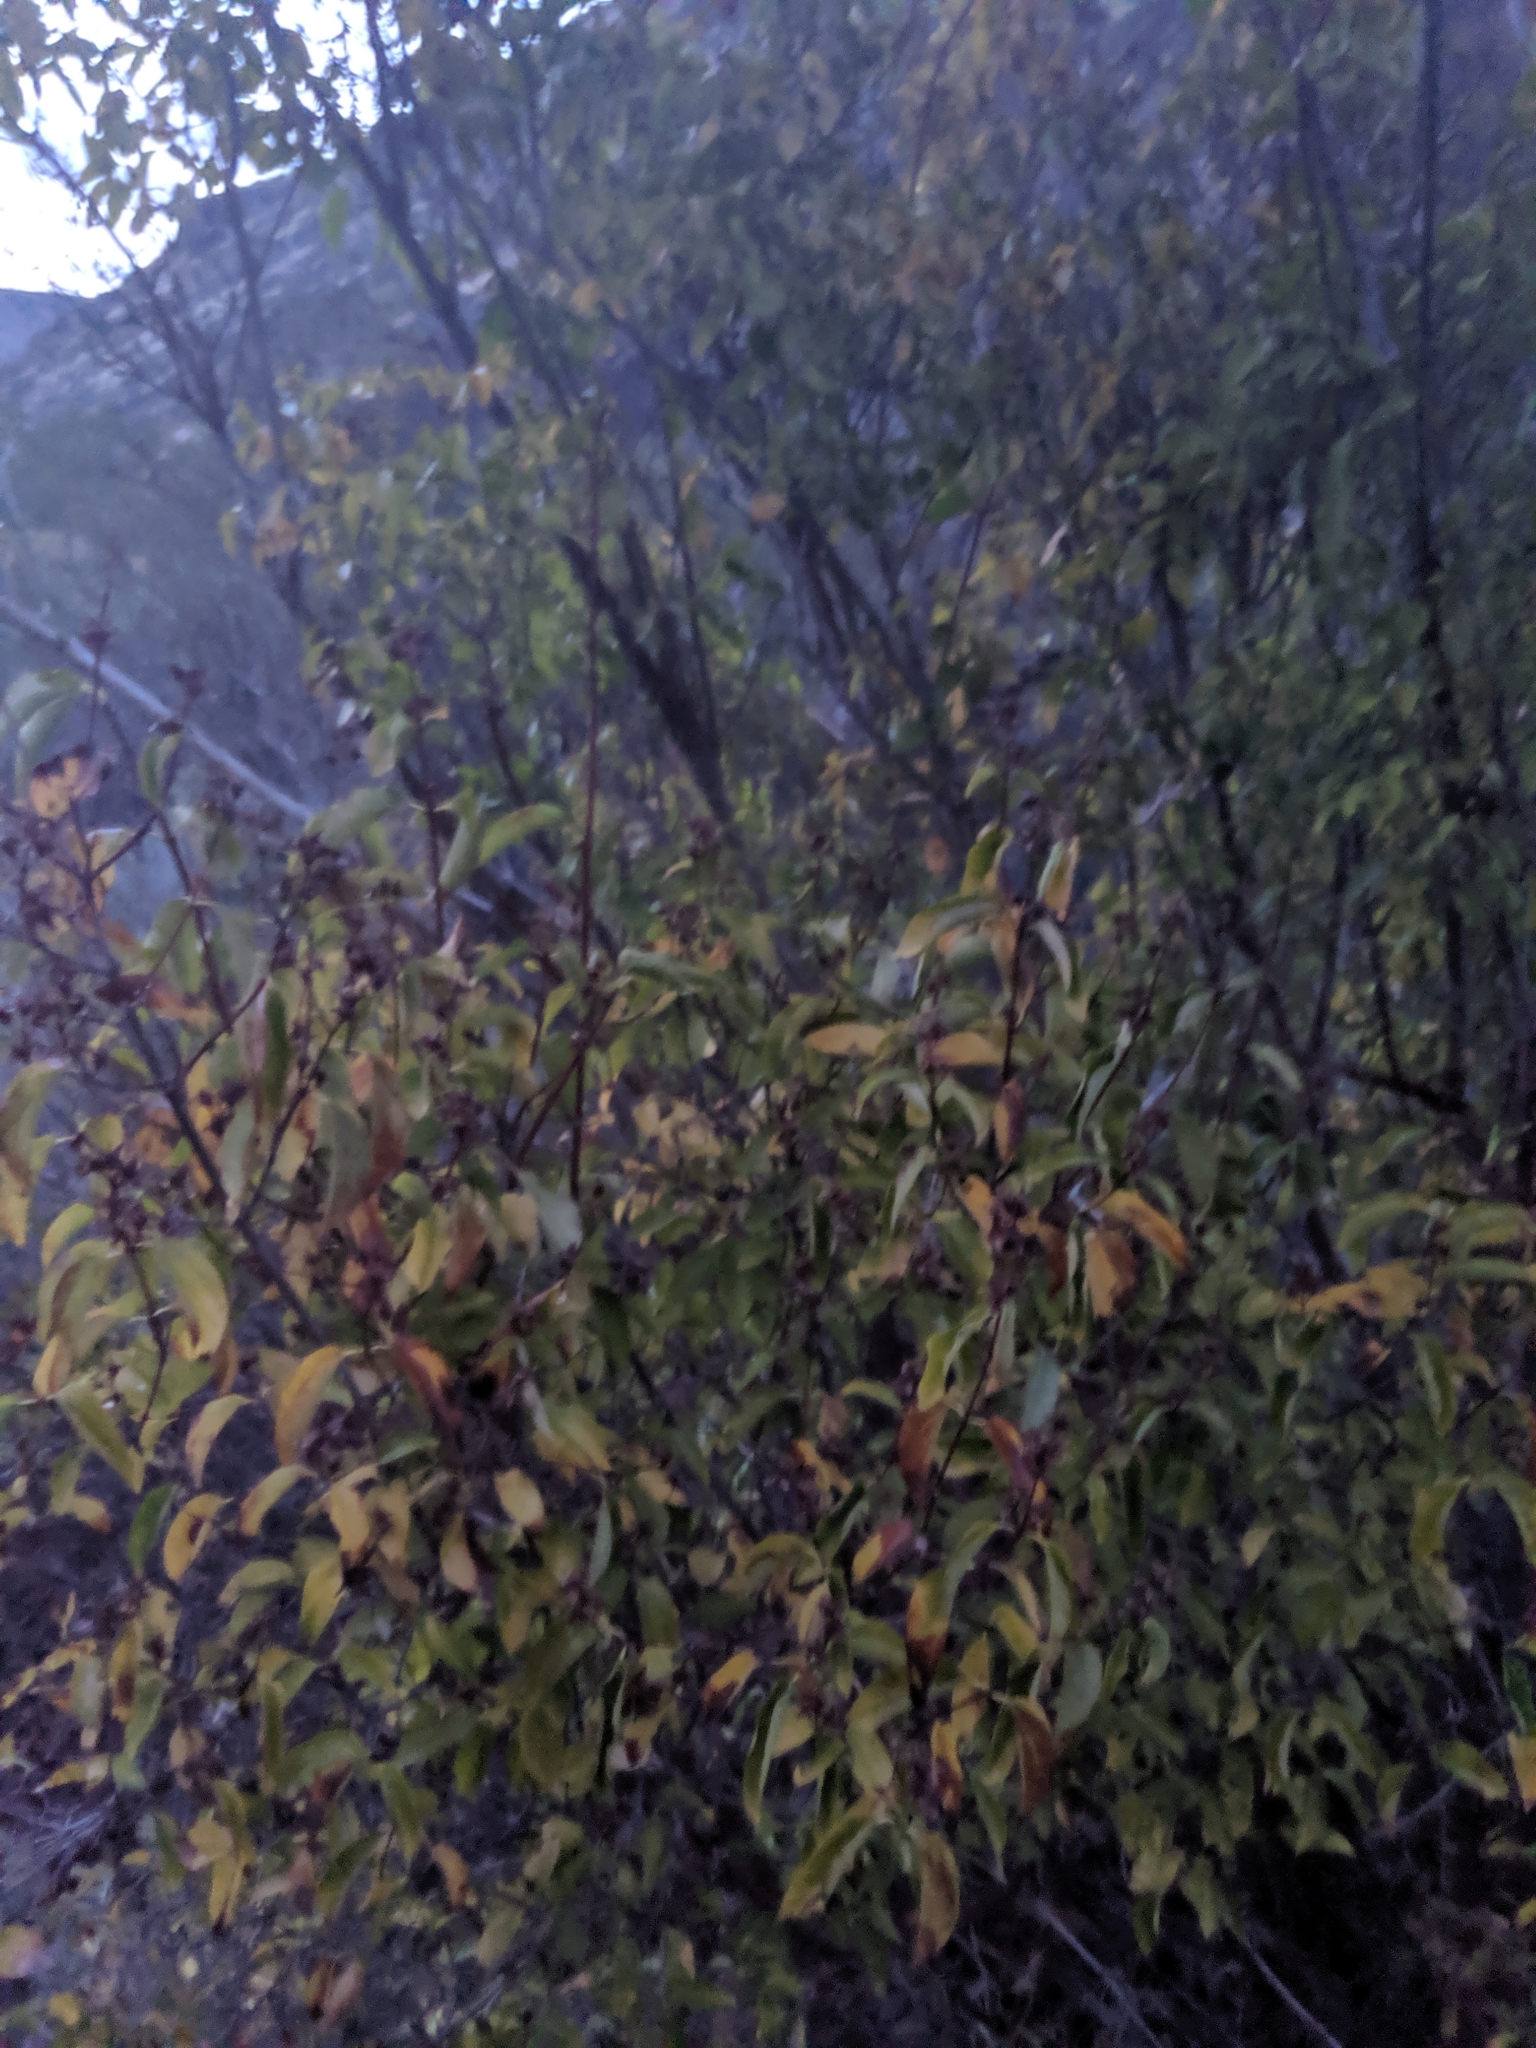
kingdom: Plantae
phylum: Tracheophyta
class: Magnoliopsida
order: Cornales
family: Hydrangeaceae
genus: Philadelphus
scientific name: Philadelphus lewisii
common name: Lewis's mock orange
